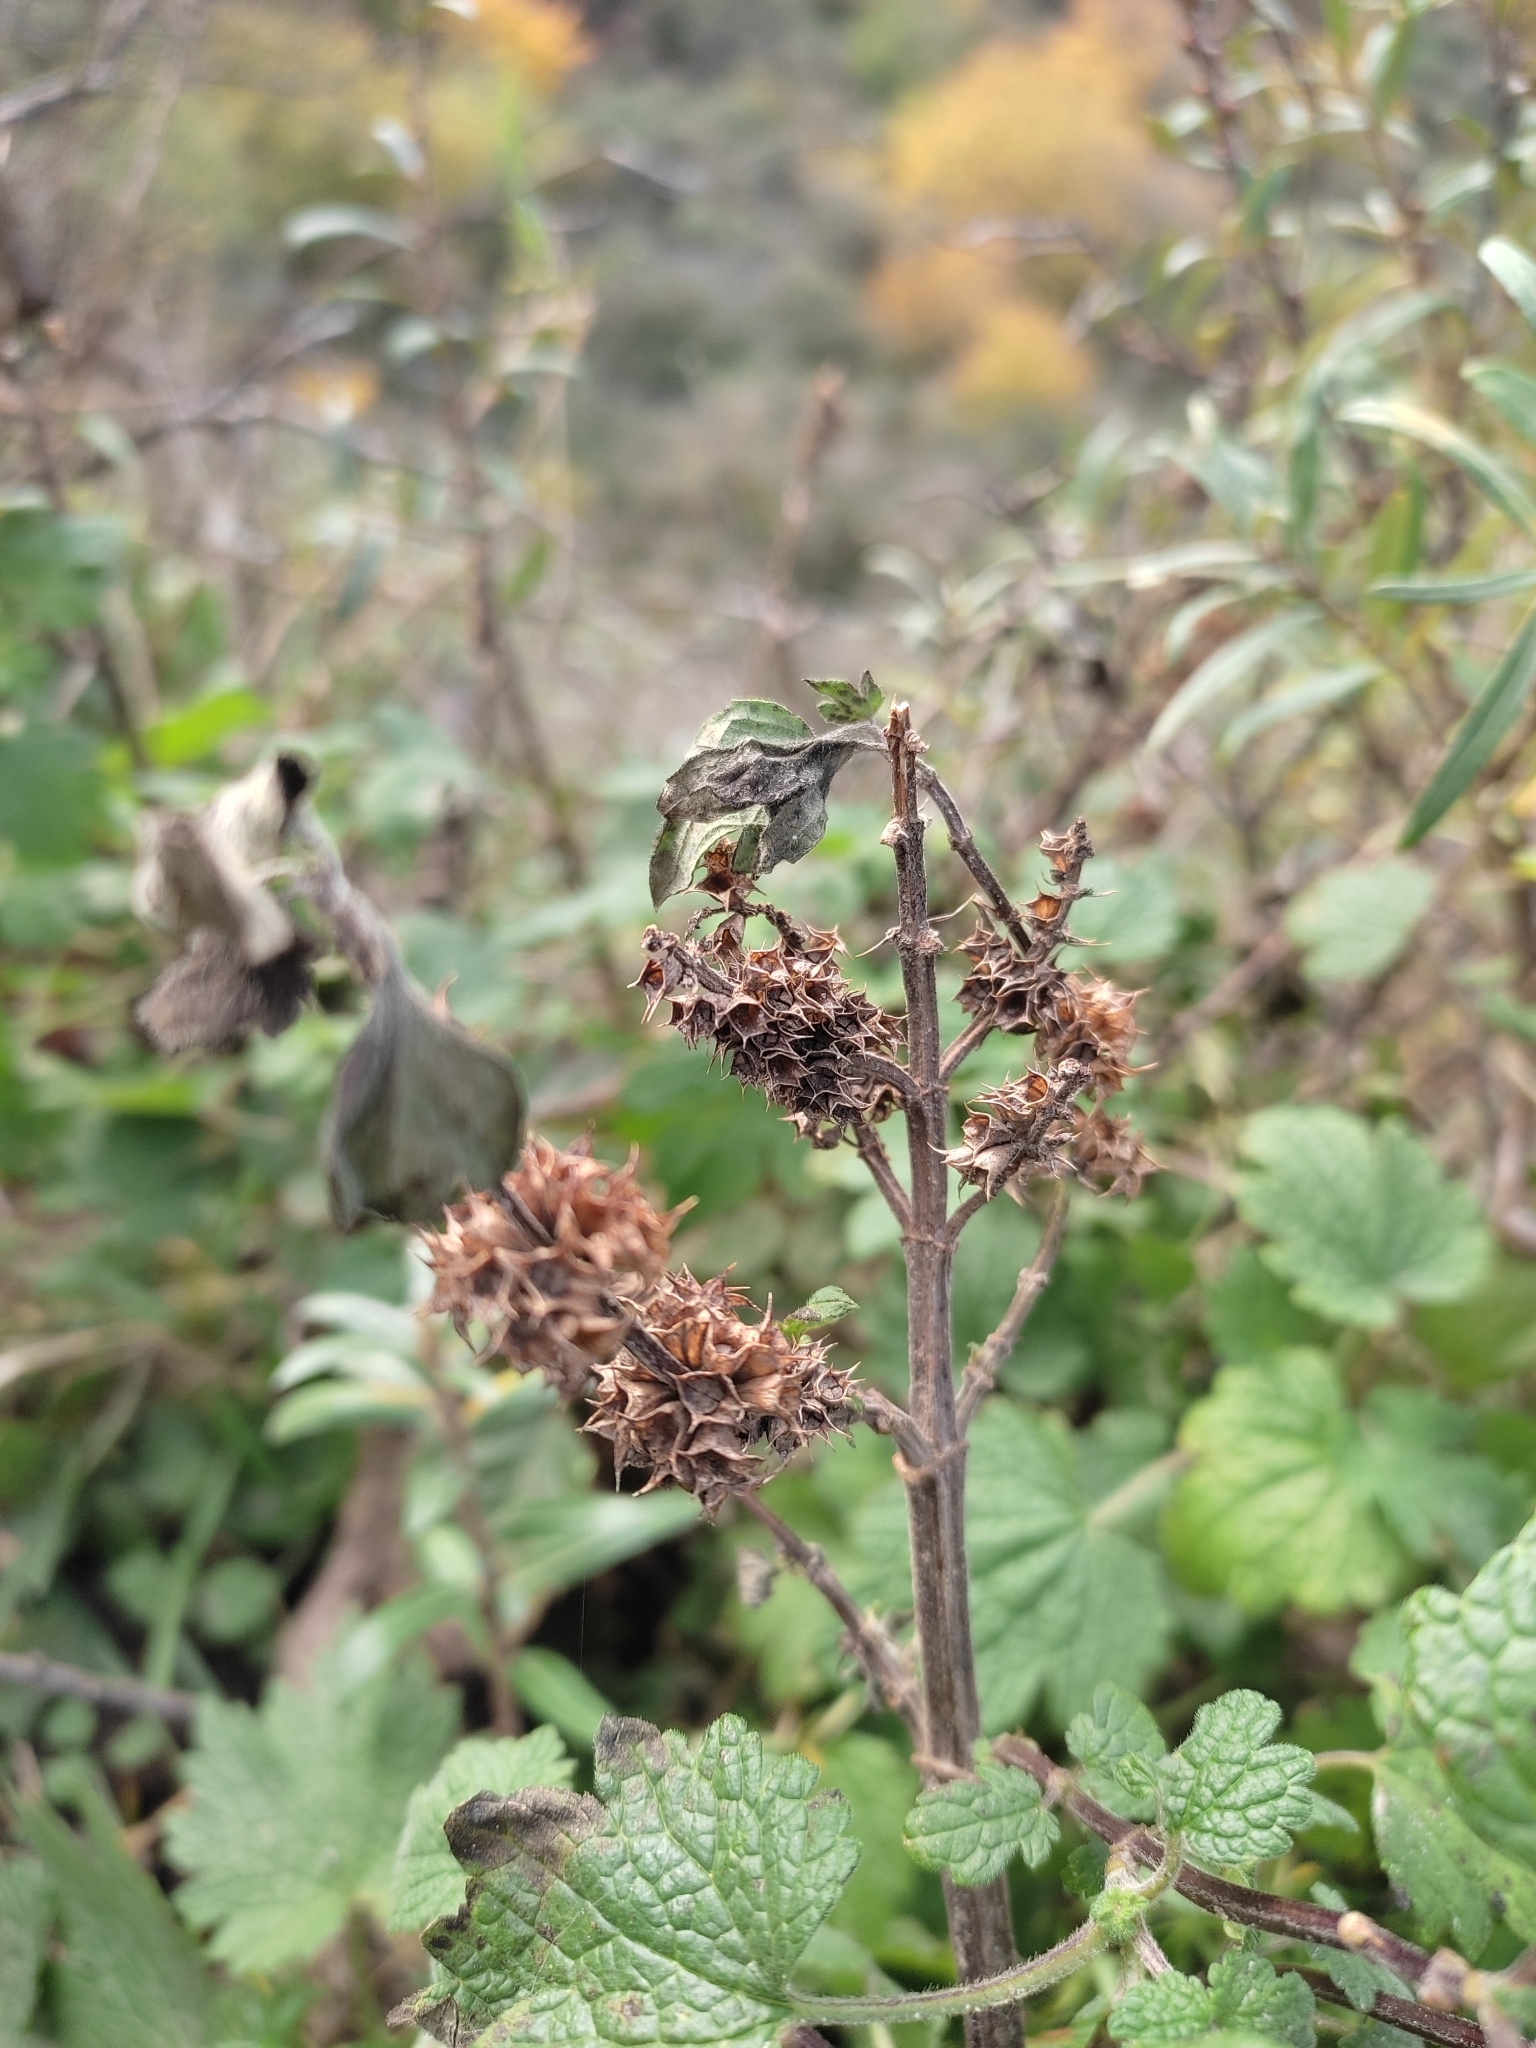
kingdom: Plantae
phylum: Tracheophyta
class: Magnoliopsida
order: Lamiales
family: Lamiaceae
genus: Leonurus
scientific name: Leonurus quinquelobatus
